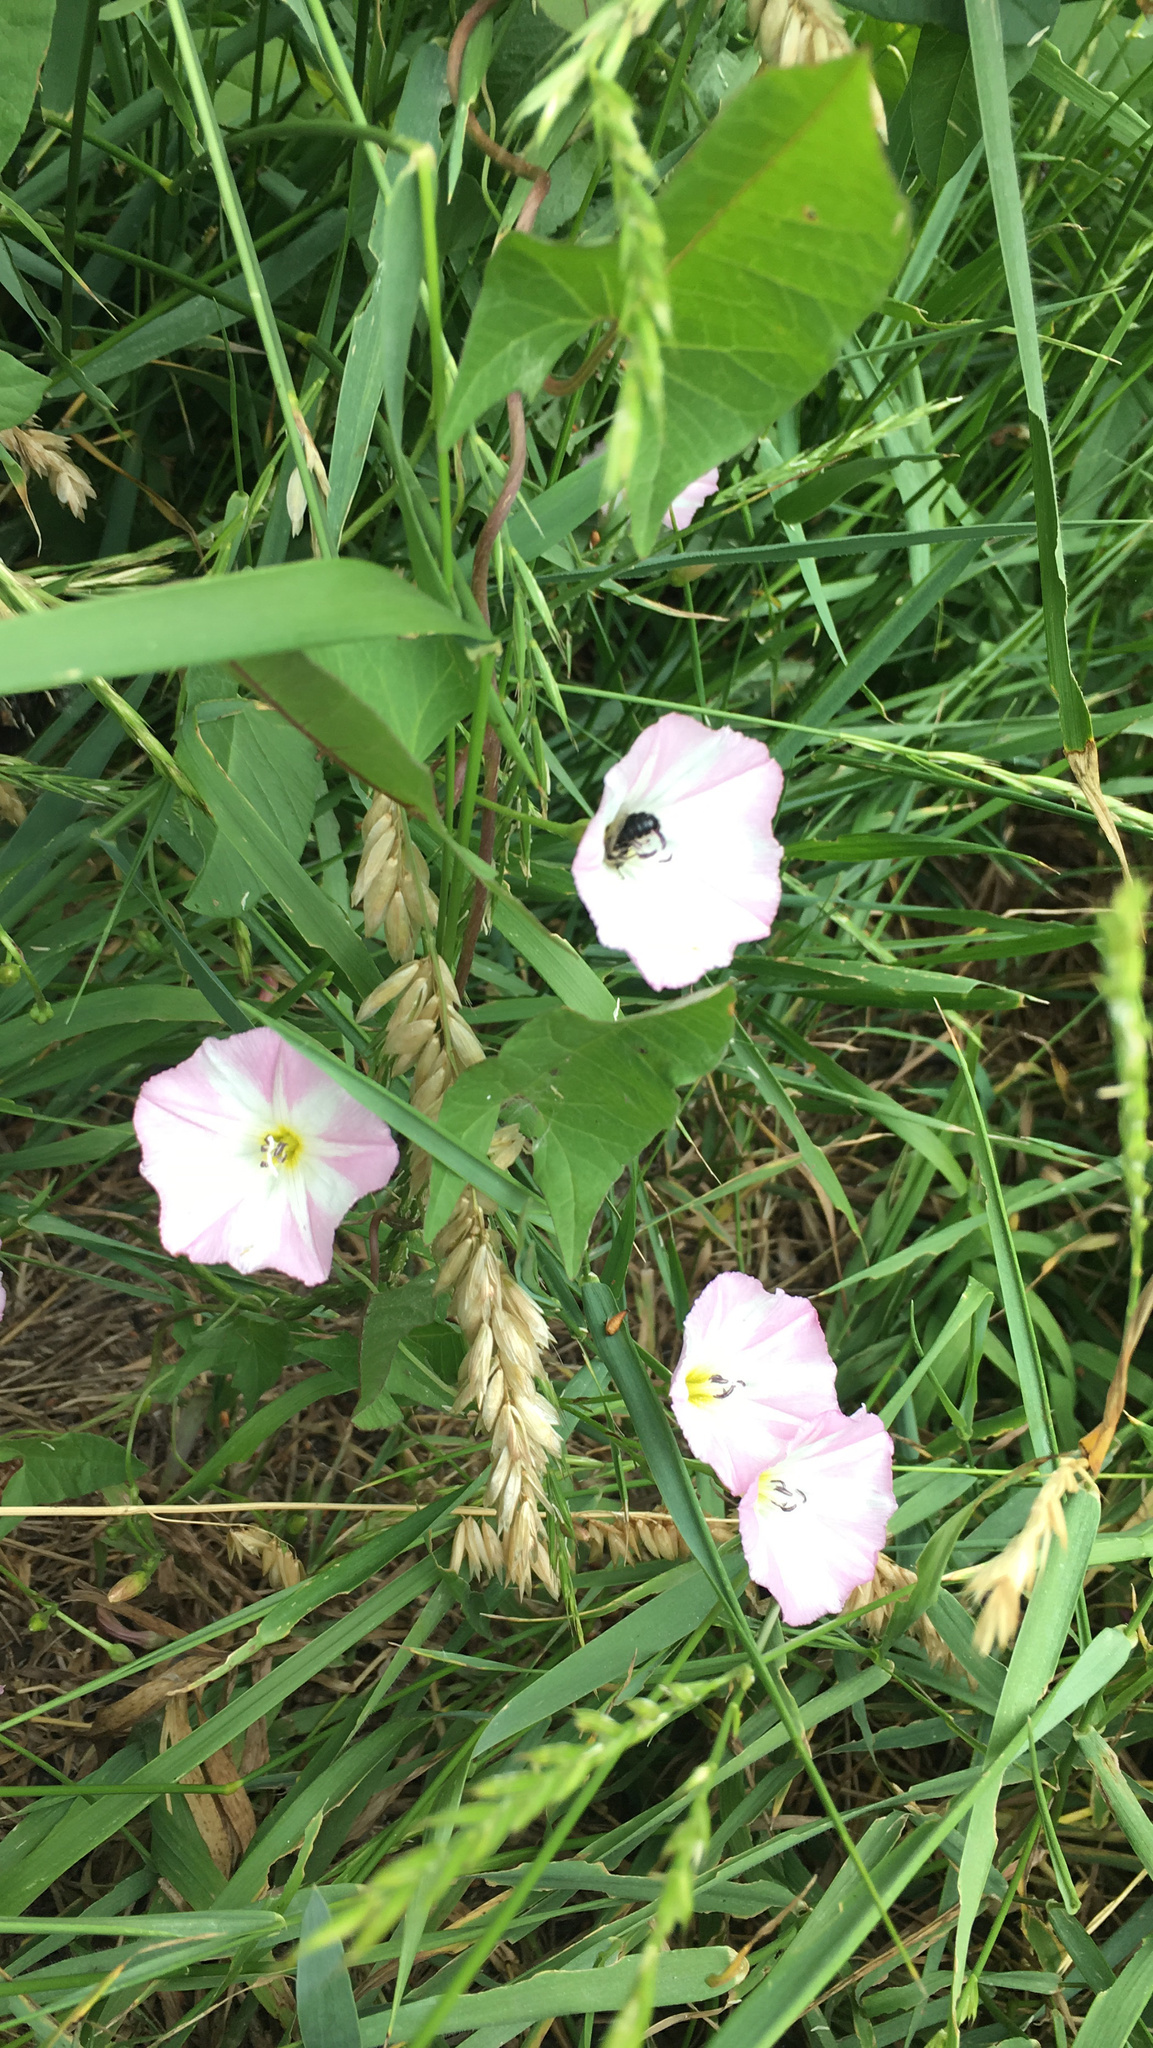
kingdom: Plantae
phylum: Tracheophyta
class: Magnoliopsida
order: Solanales
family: Convolvulaceae
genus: Convolvulus
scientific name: Convolvulus arvensis
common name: Field bindweed
